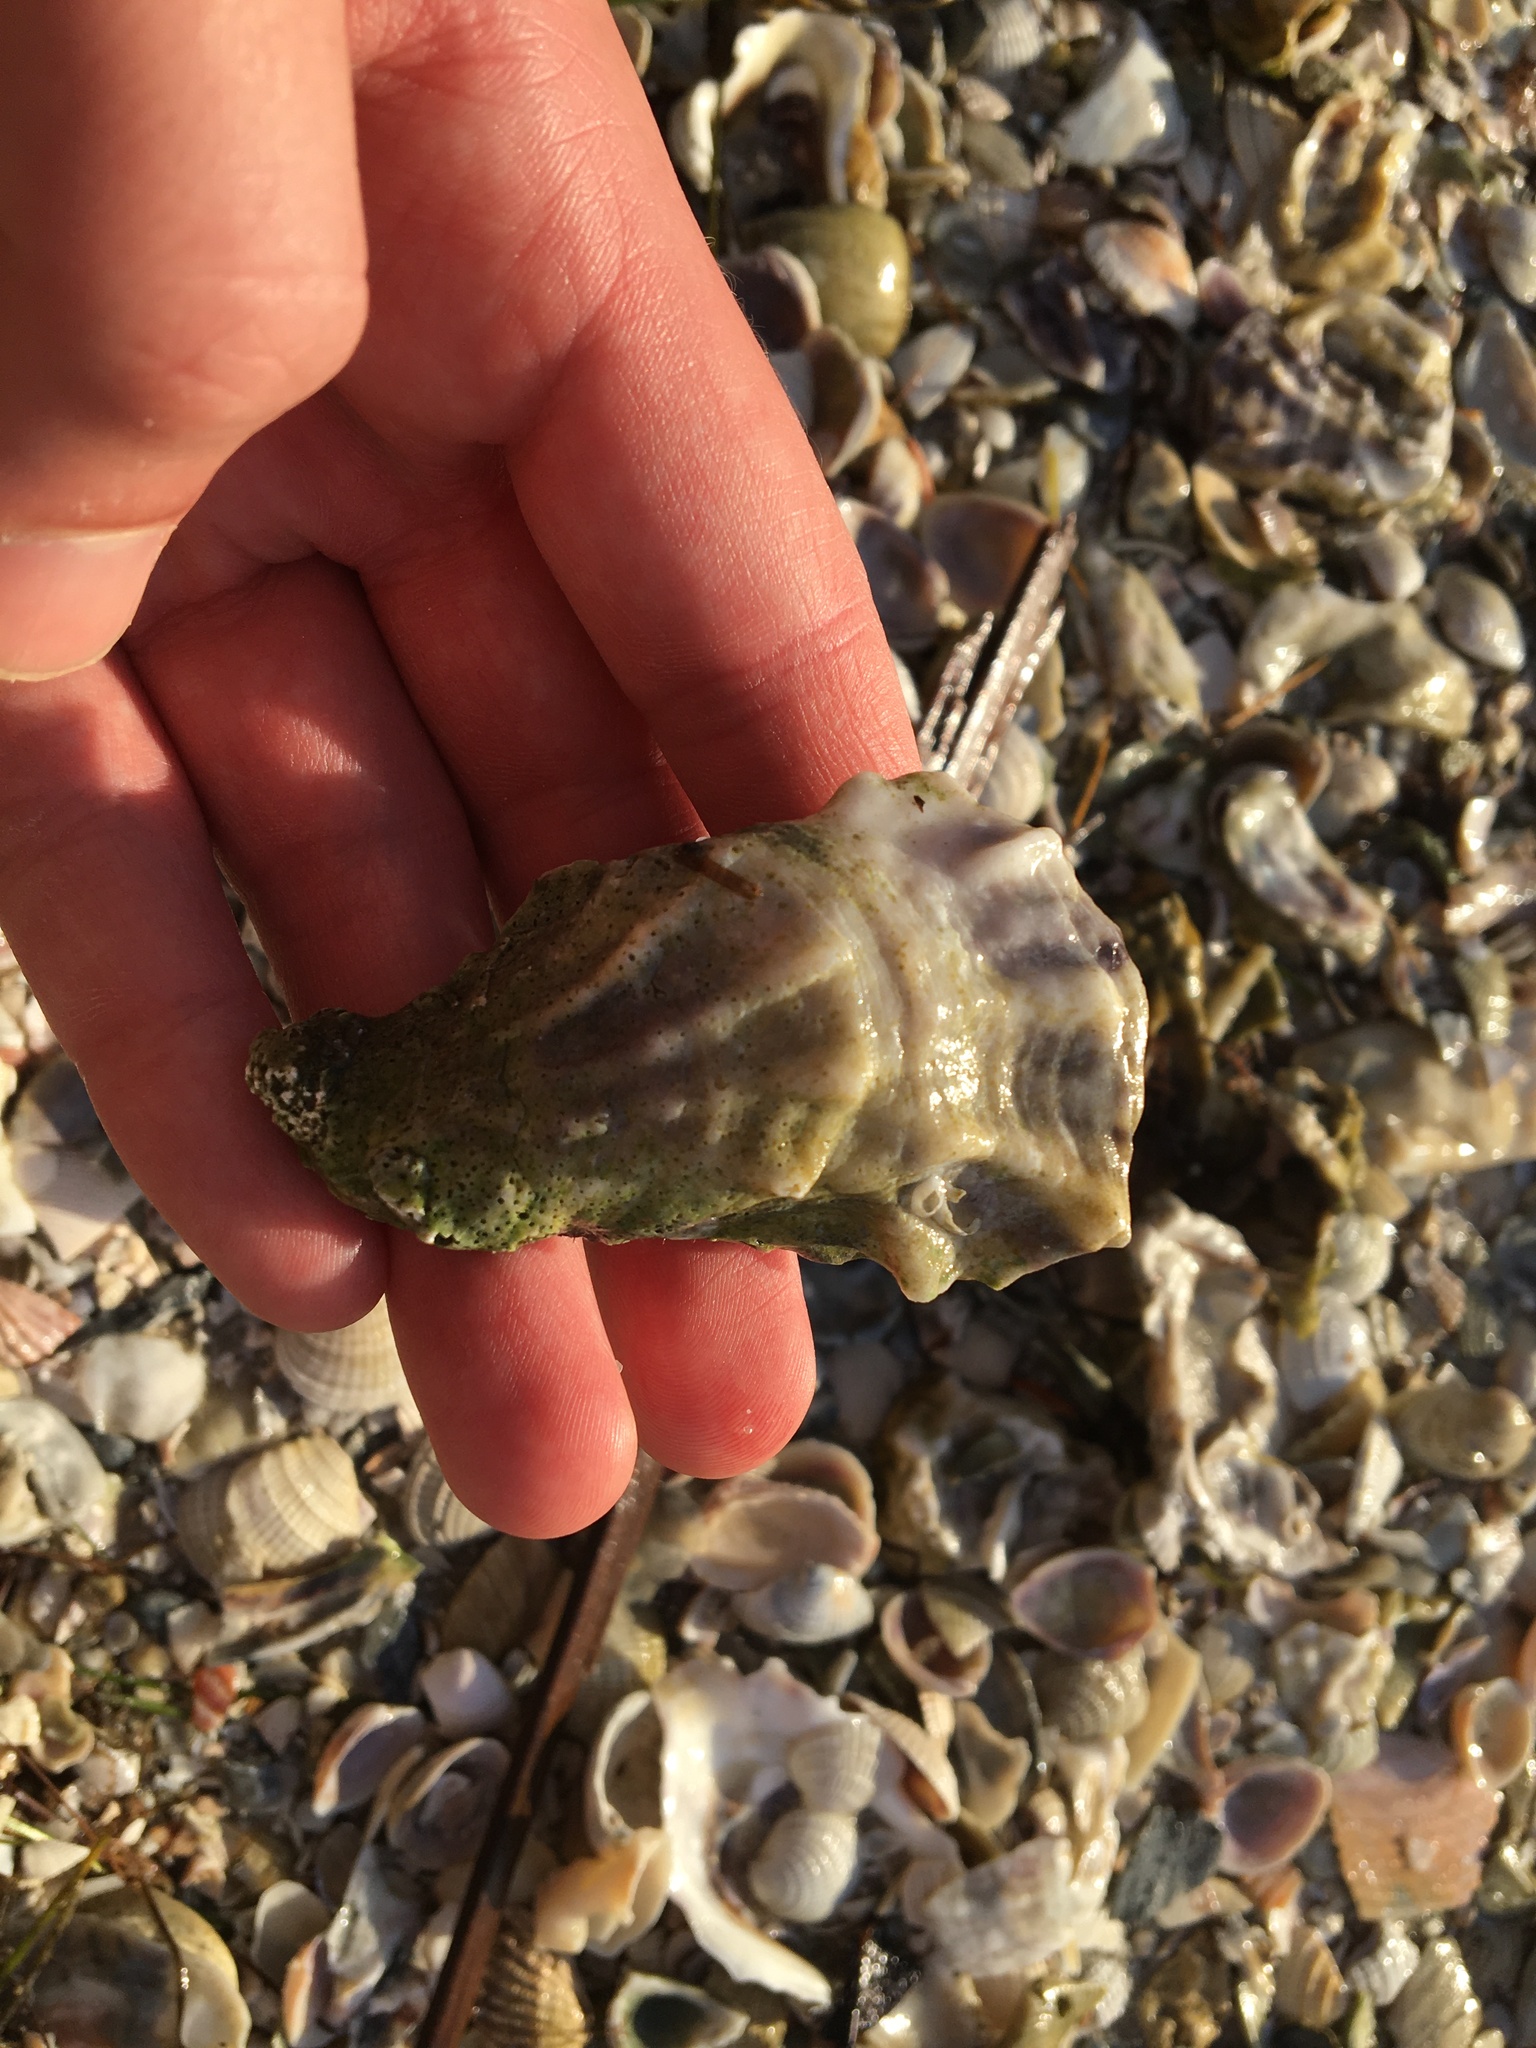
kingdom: Animalia
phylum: Mollusca
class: Bivalvia
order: Ostreida
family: Ostreidae
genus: Crassostrea
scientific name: Crassostrea virginica
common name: American oyster
